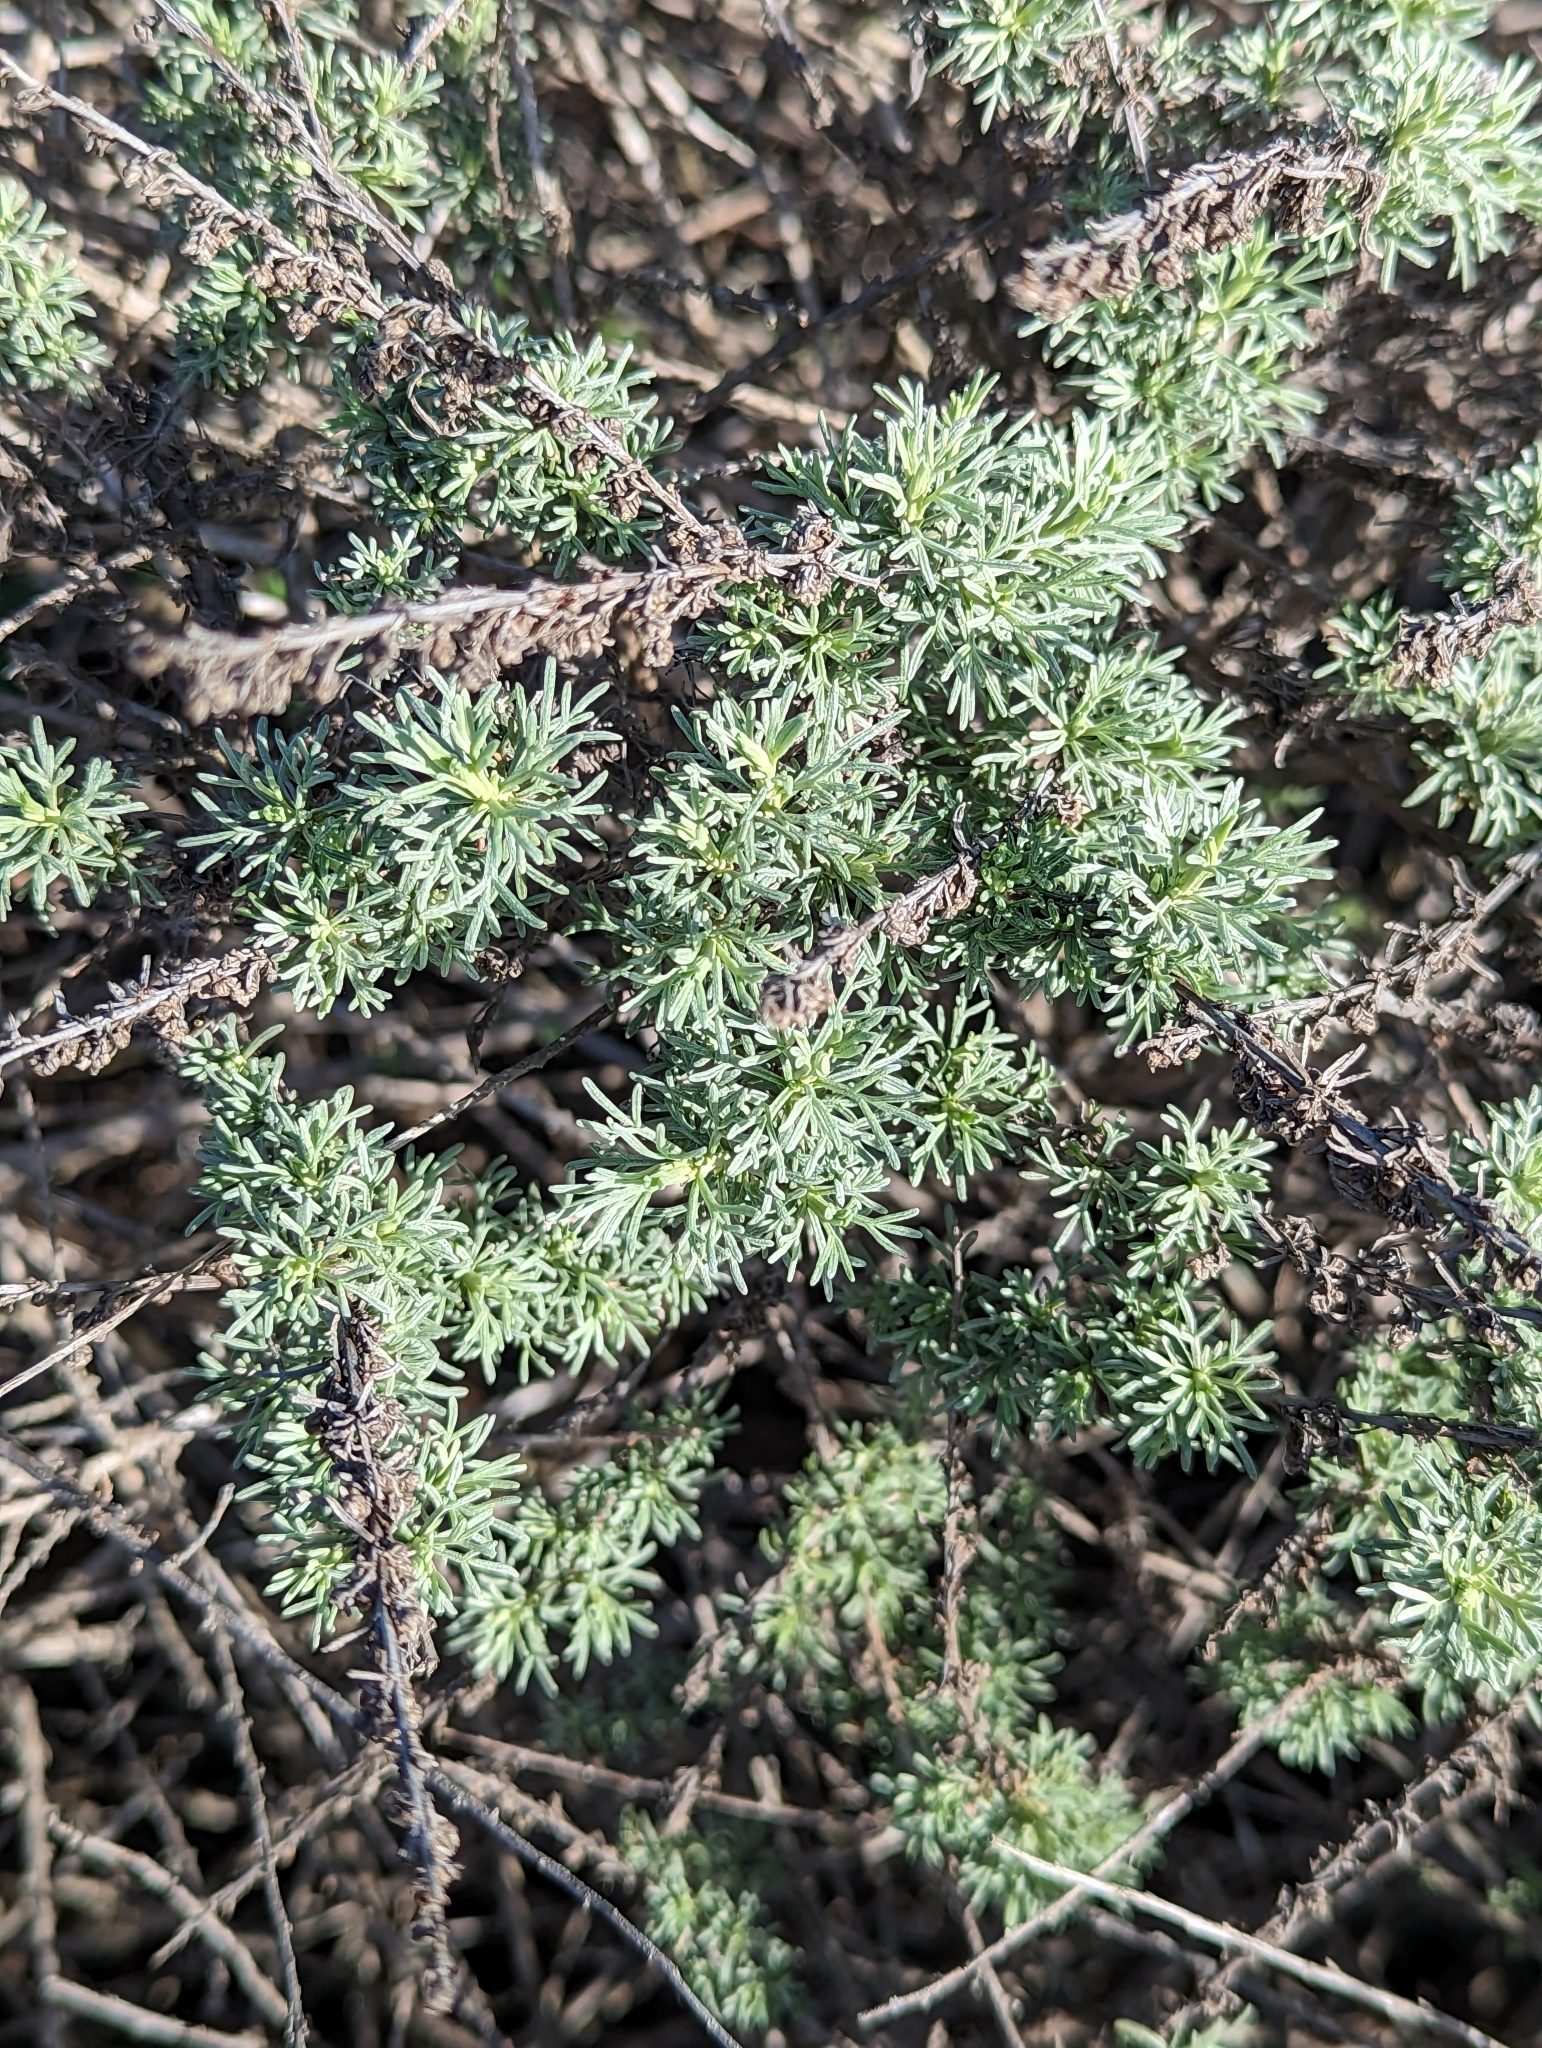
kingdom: Plantae
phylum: Tracheophyta
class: Magnoliopsida
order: Asterales
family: Asteraceae
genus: Artemisia
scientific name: Artemisia californica
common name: California sagebrush
